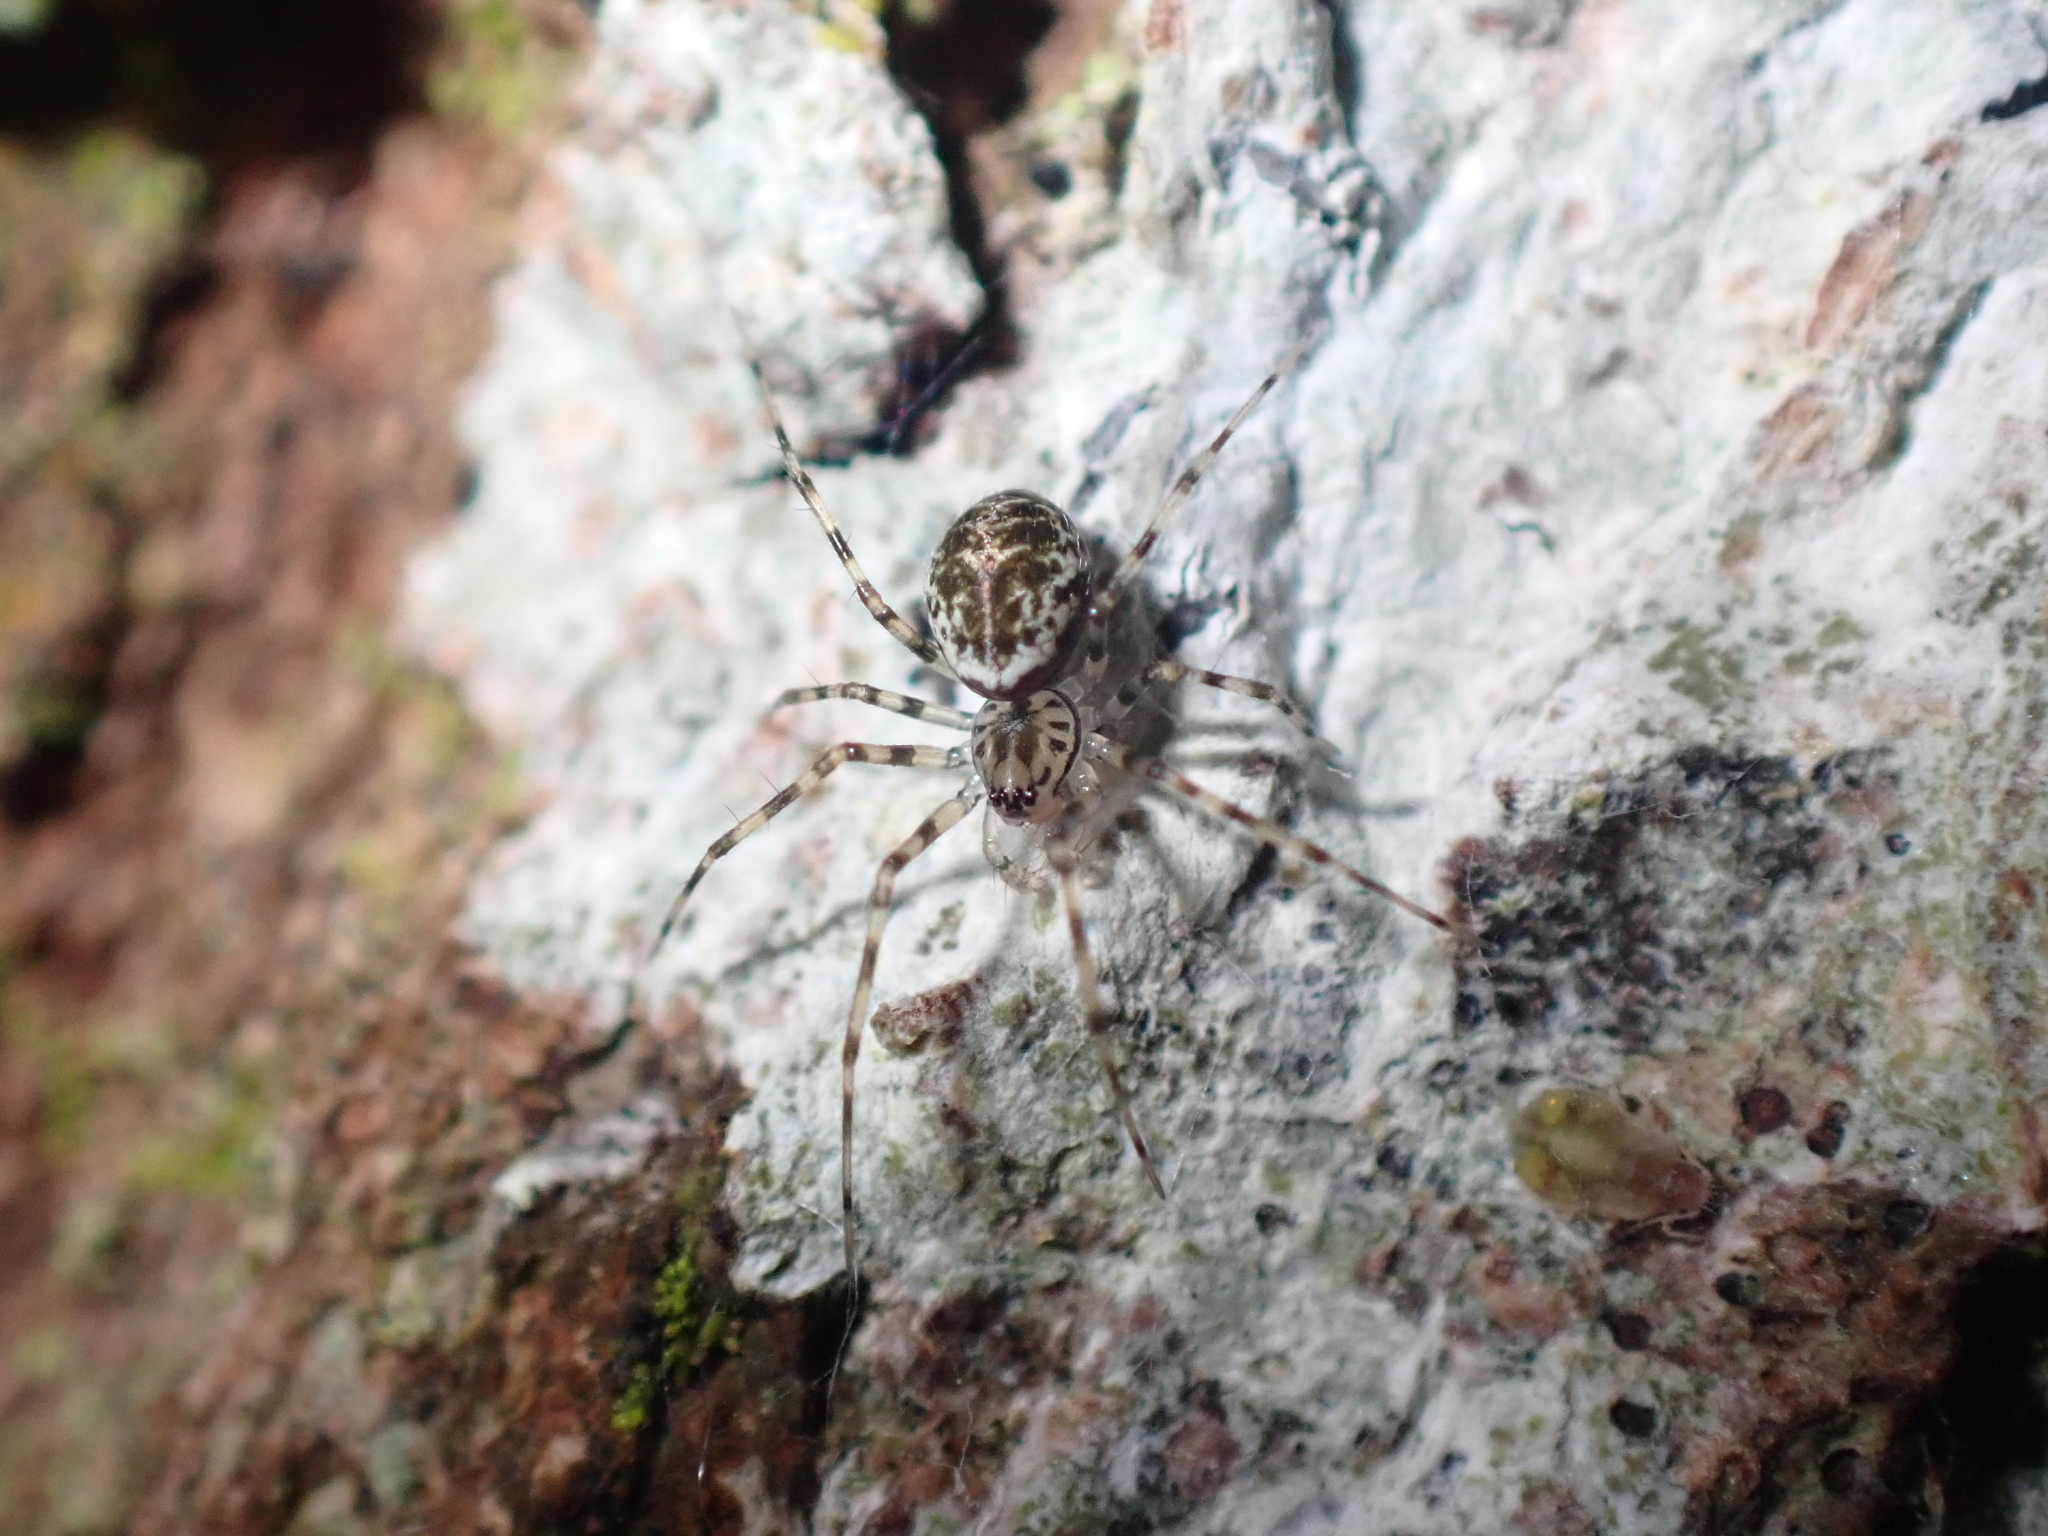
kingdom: Animalia
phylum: Arthropoda
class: Arachnida
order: Araneae
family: Linyphiidae
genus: Drapetisca
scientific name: Drapetisca socialis
